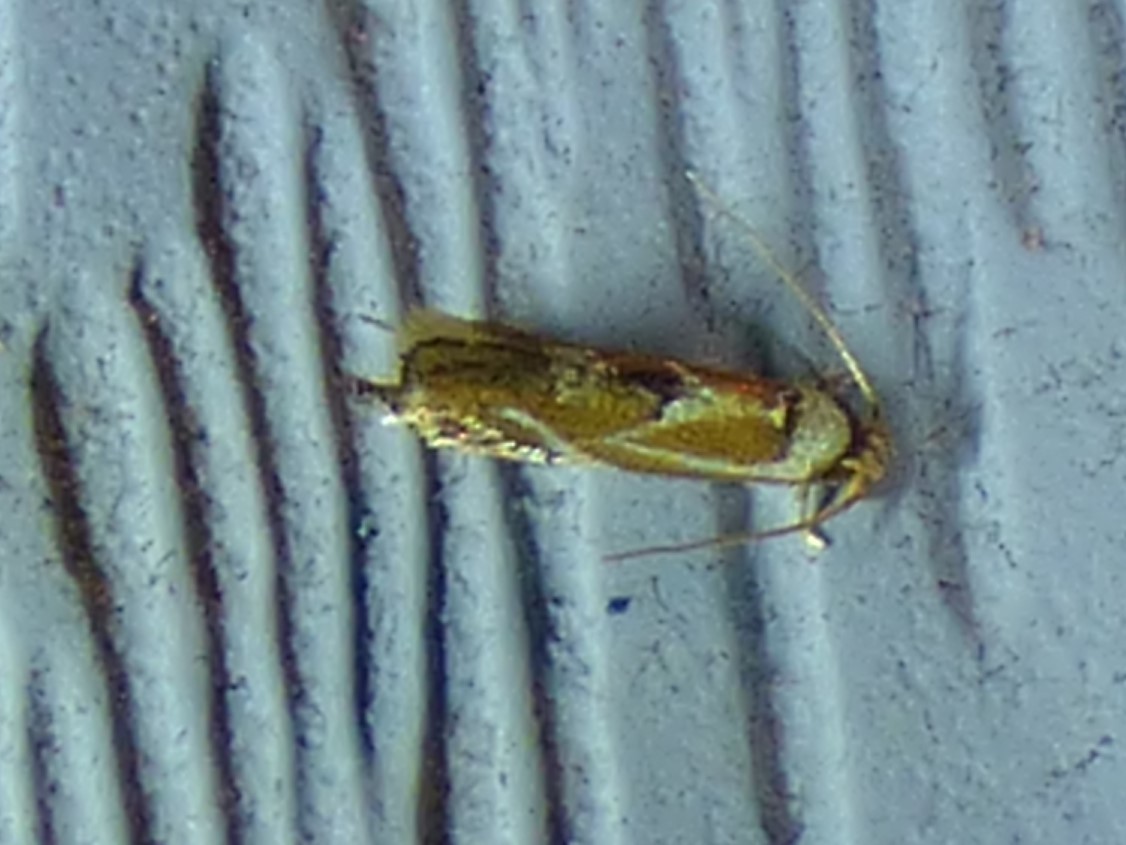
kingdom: Animalia
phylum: Arthropoda
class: Insecta
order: Lepidoptera
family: Lyonetiidae
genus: Philonome
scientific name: Philonome clemensella
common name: Clemen's philonome moth
